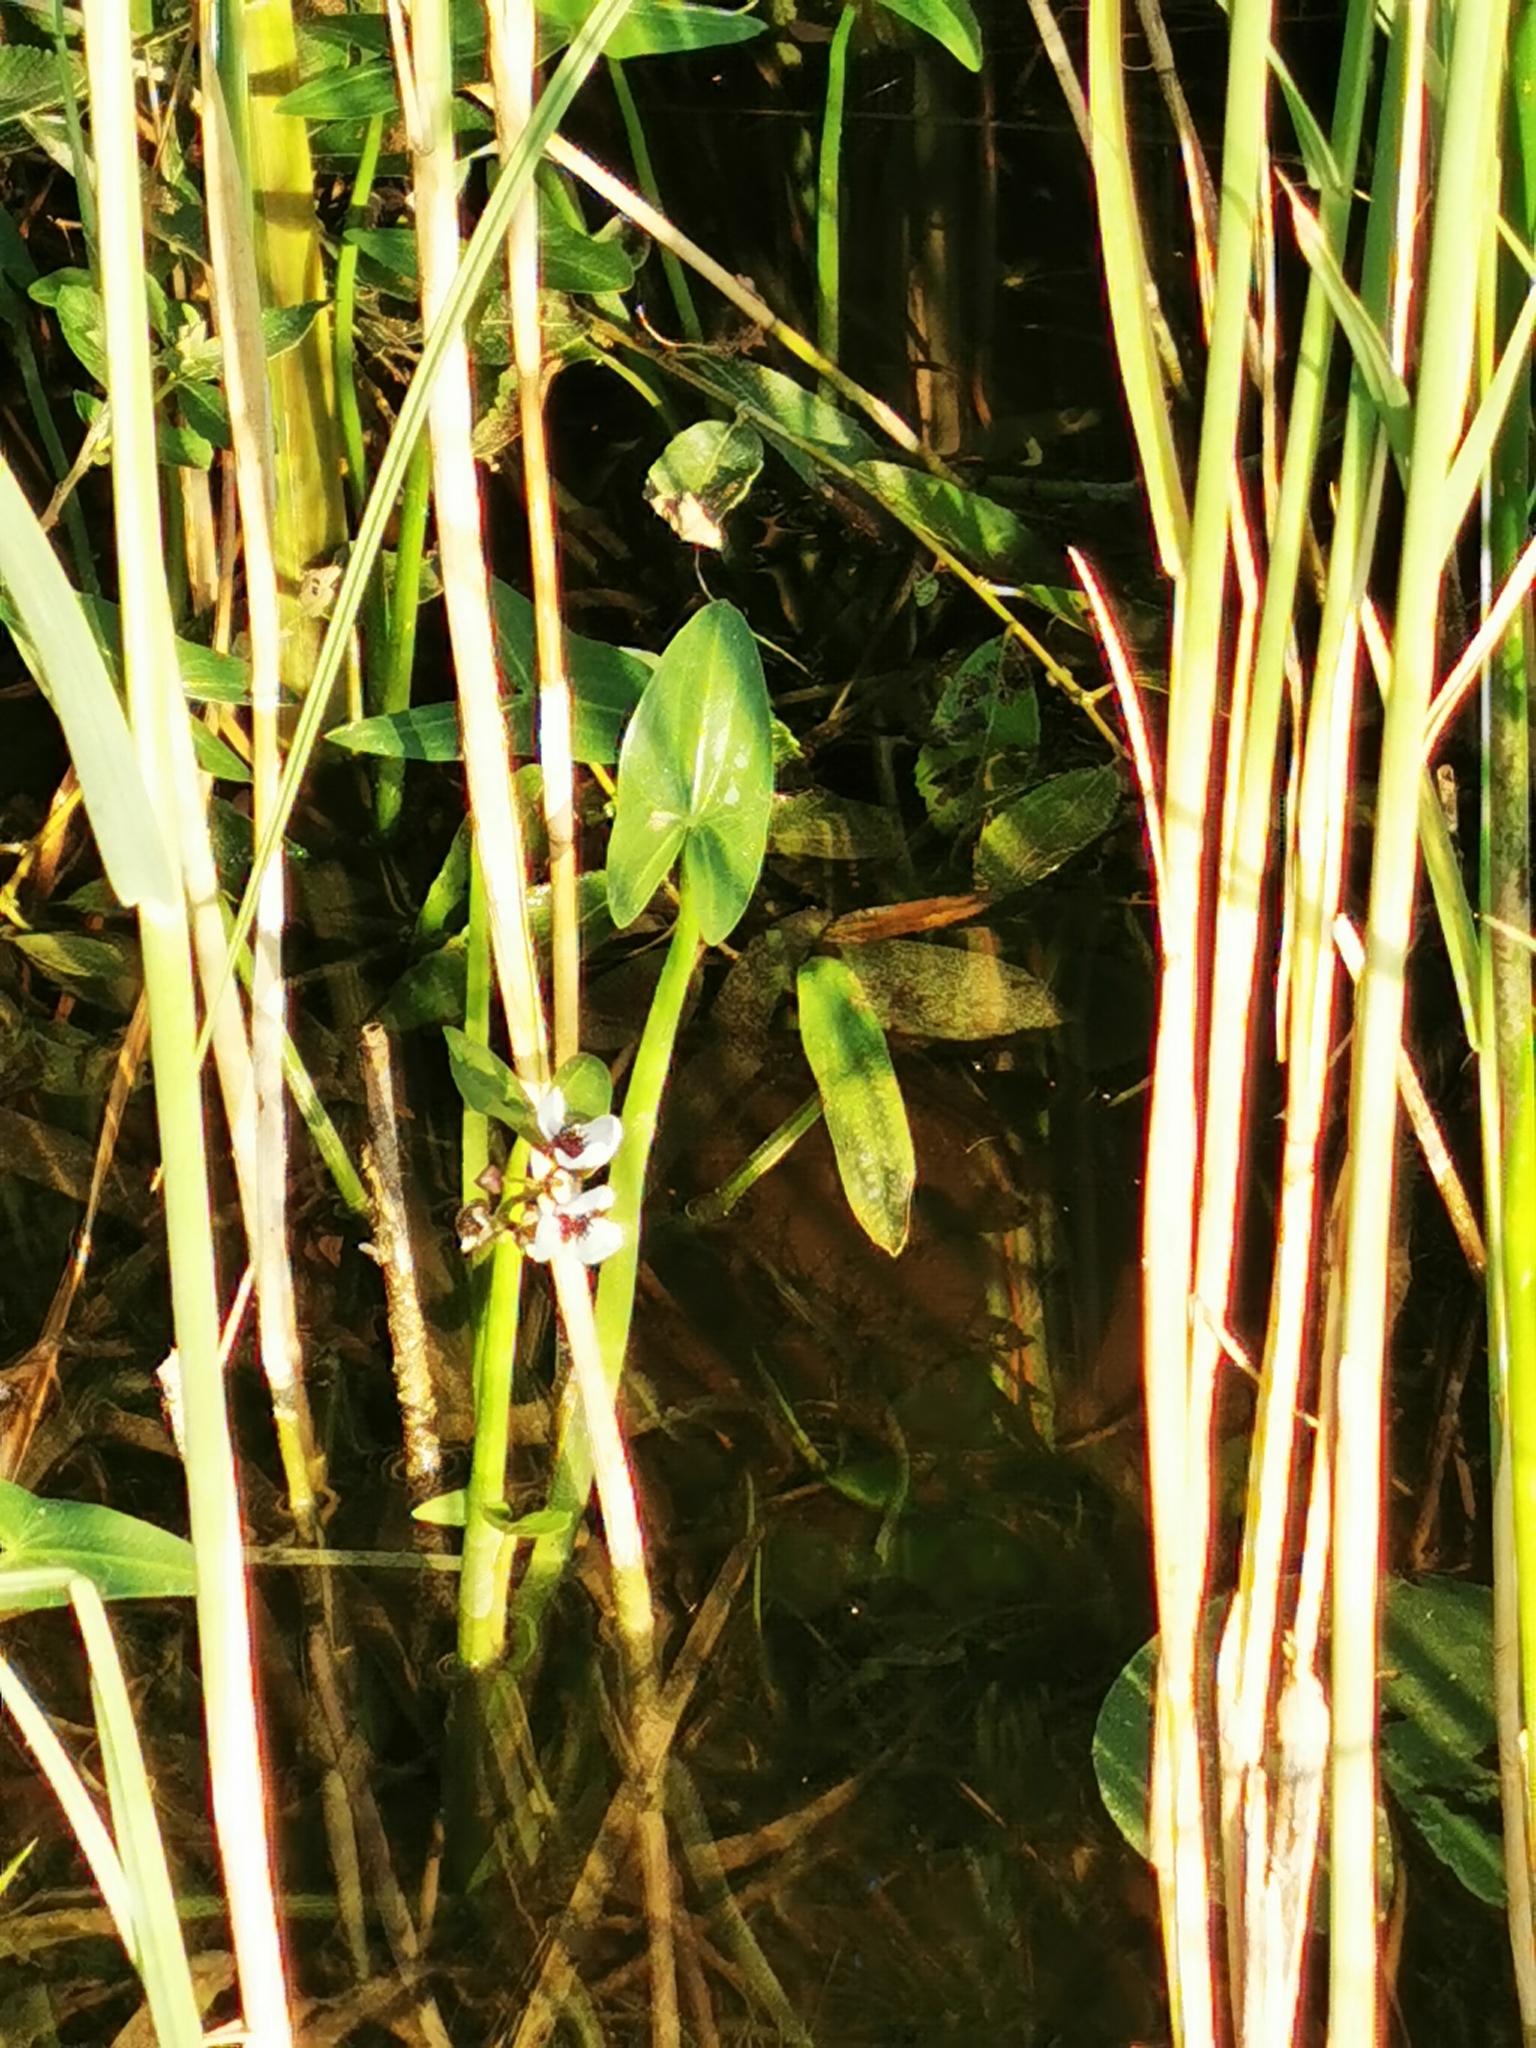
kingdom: Plantae
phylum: Tracheophyta
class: Liliopsida
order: Alismatales
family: Alismataceae
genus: Sagittaria
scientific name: Sagittaria sagittifolia
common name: Arrowhead
